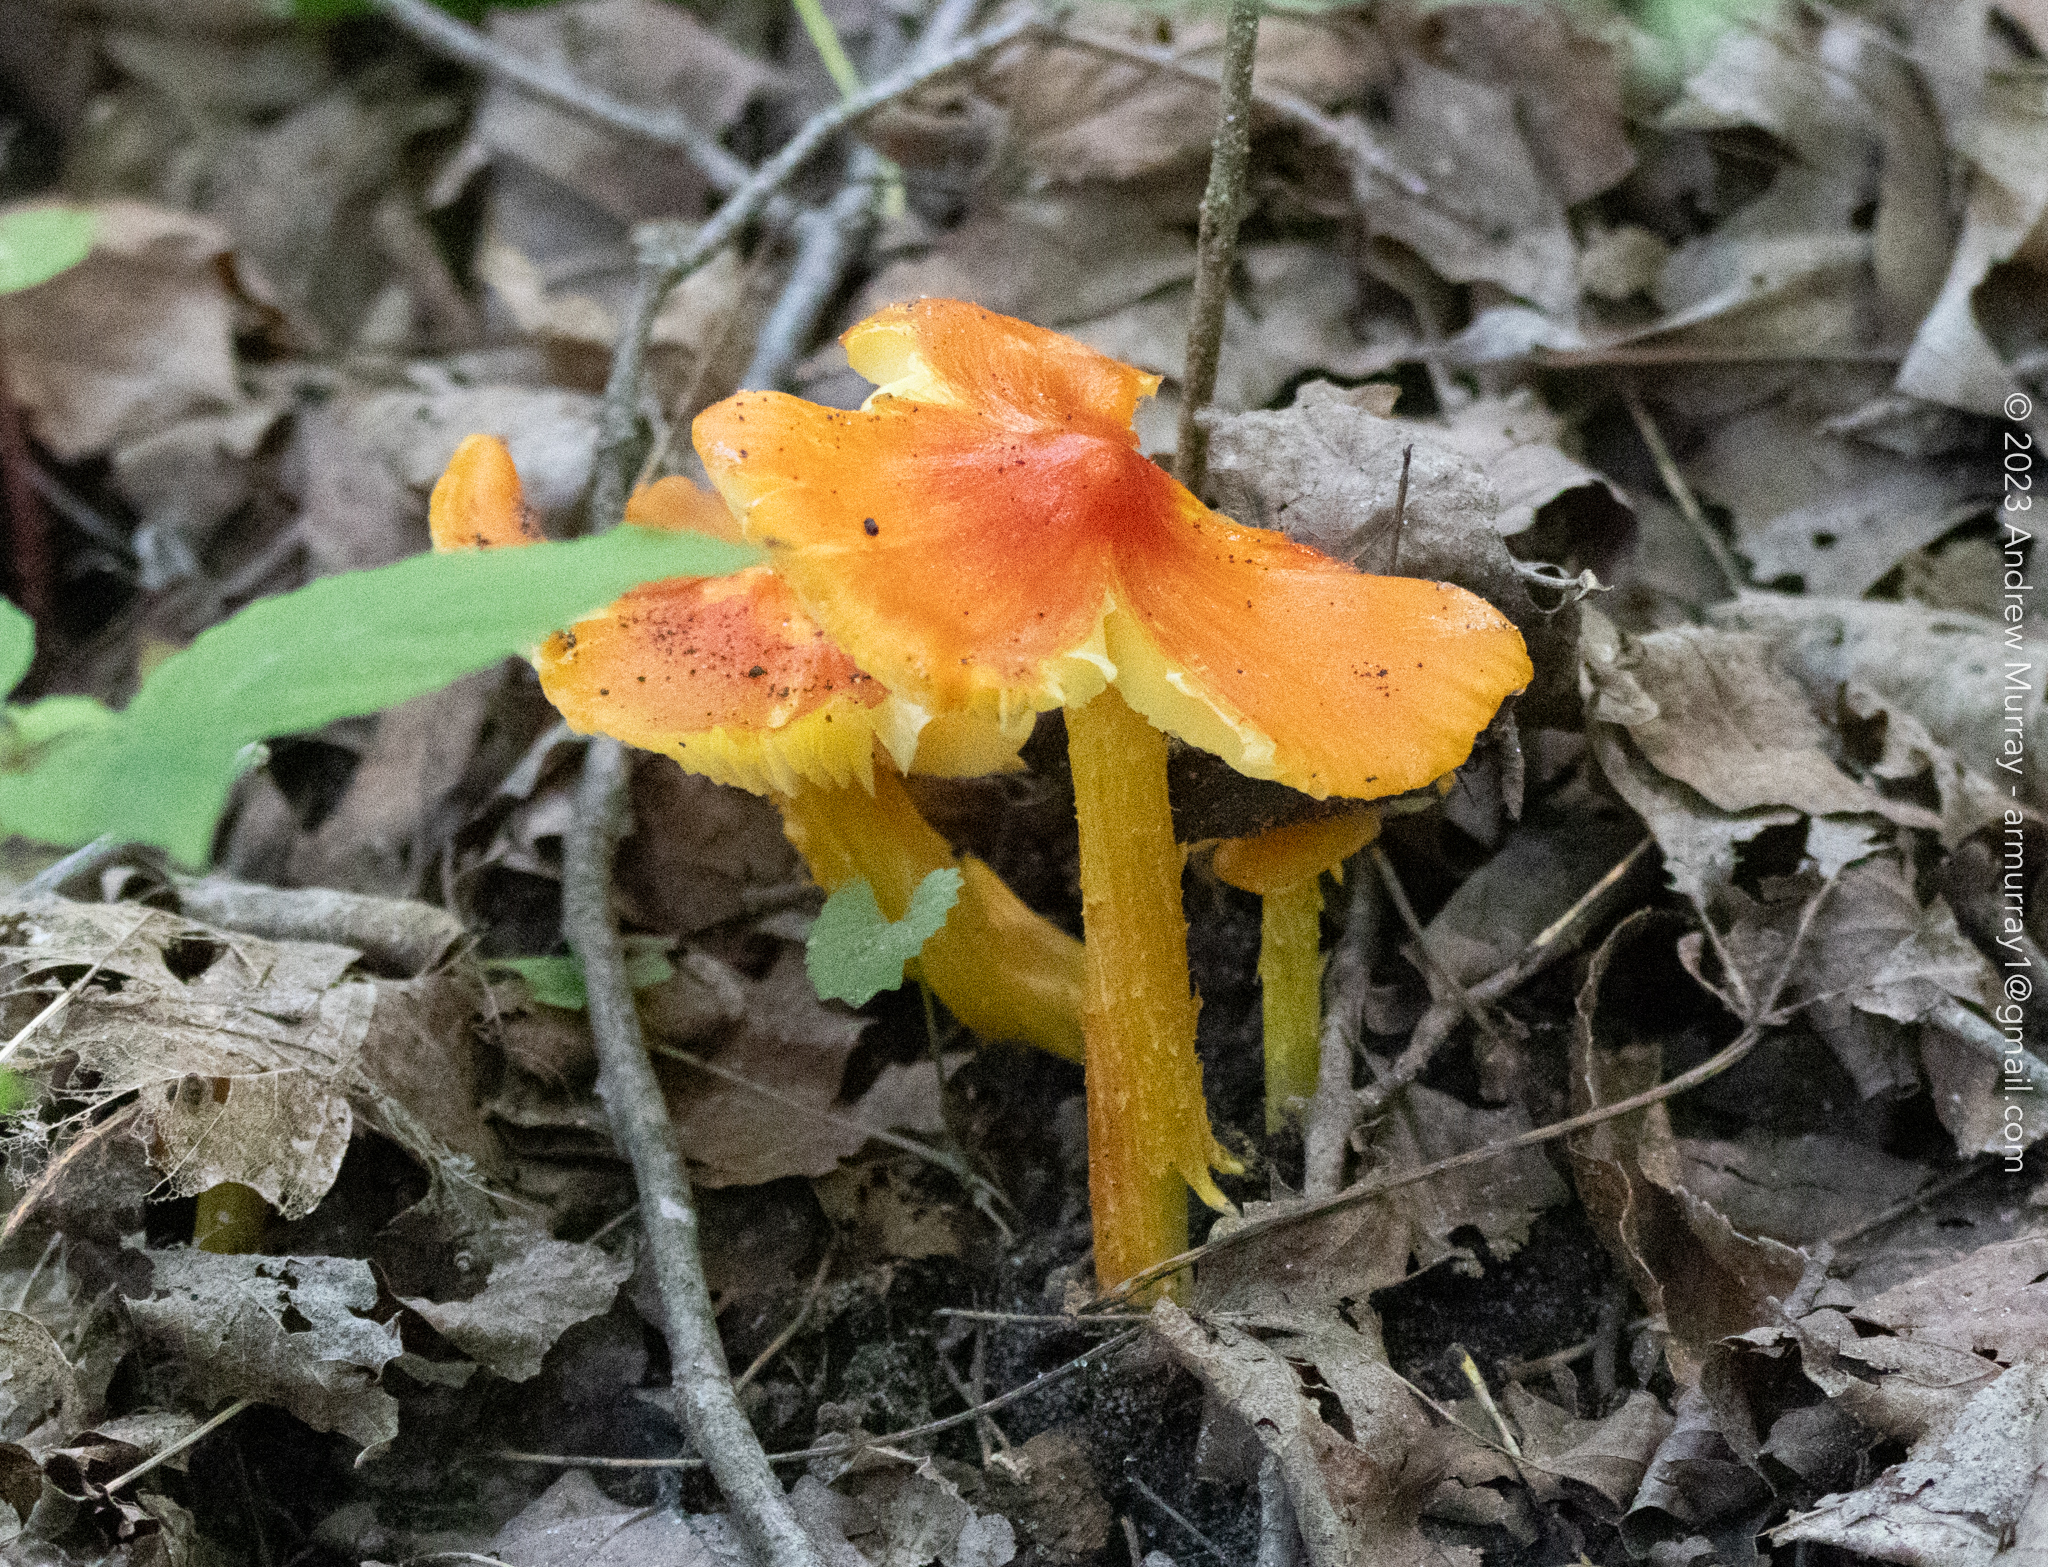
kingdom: Fungi
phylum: Basidiomycota
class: Agaricomycetes
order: Agaricales
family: Hygrophoraceae
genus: Hygrocybe
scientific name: Hygrocybe acutoconica
